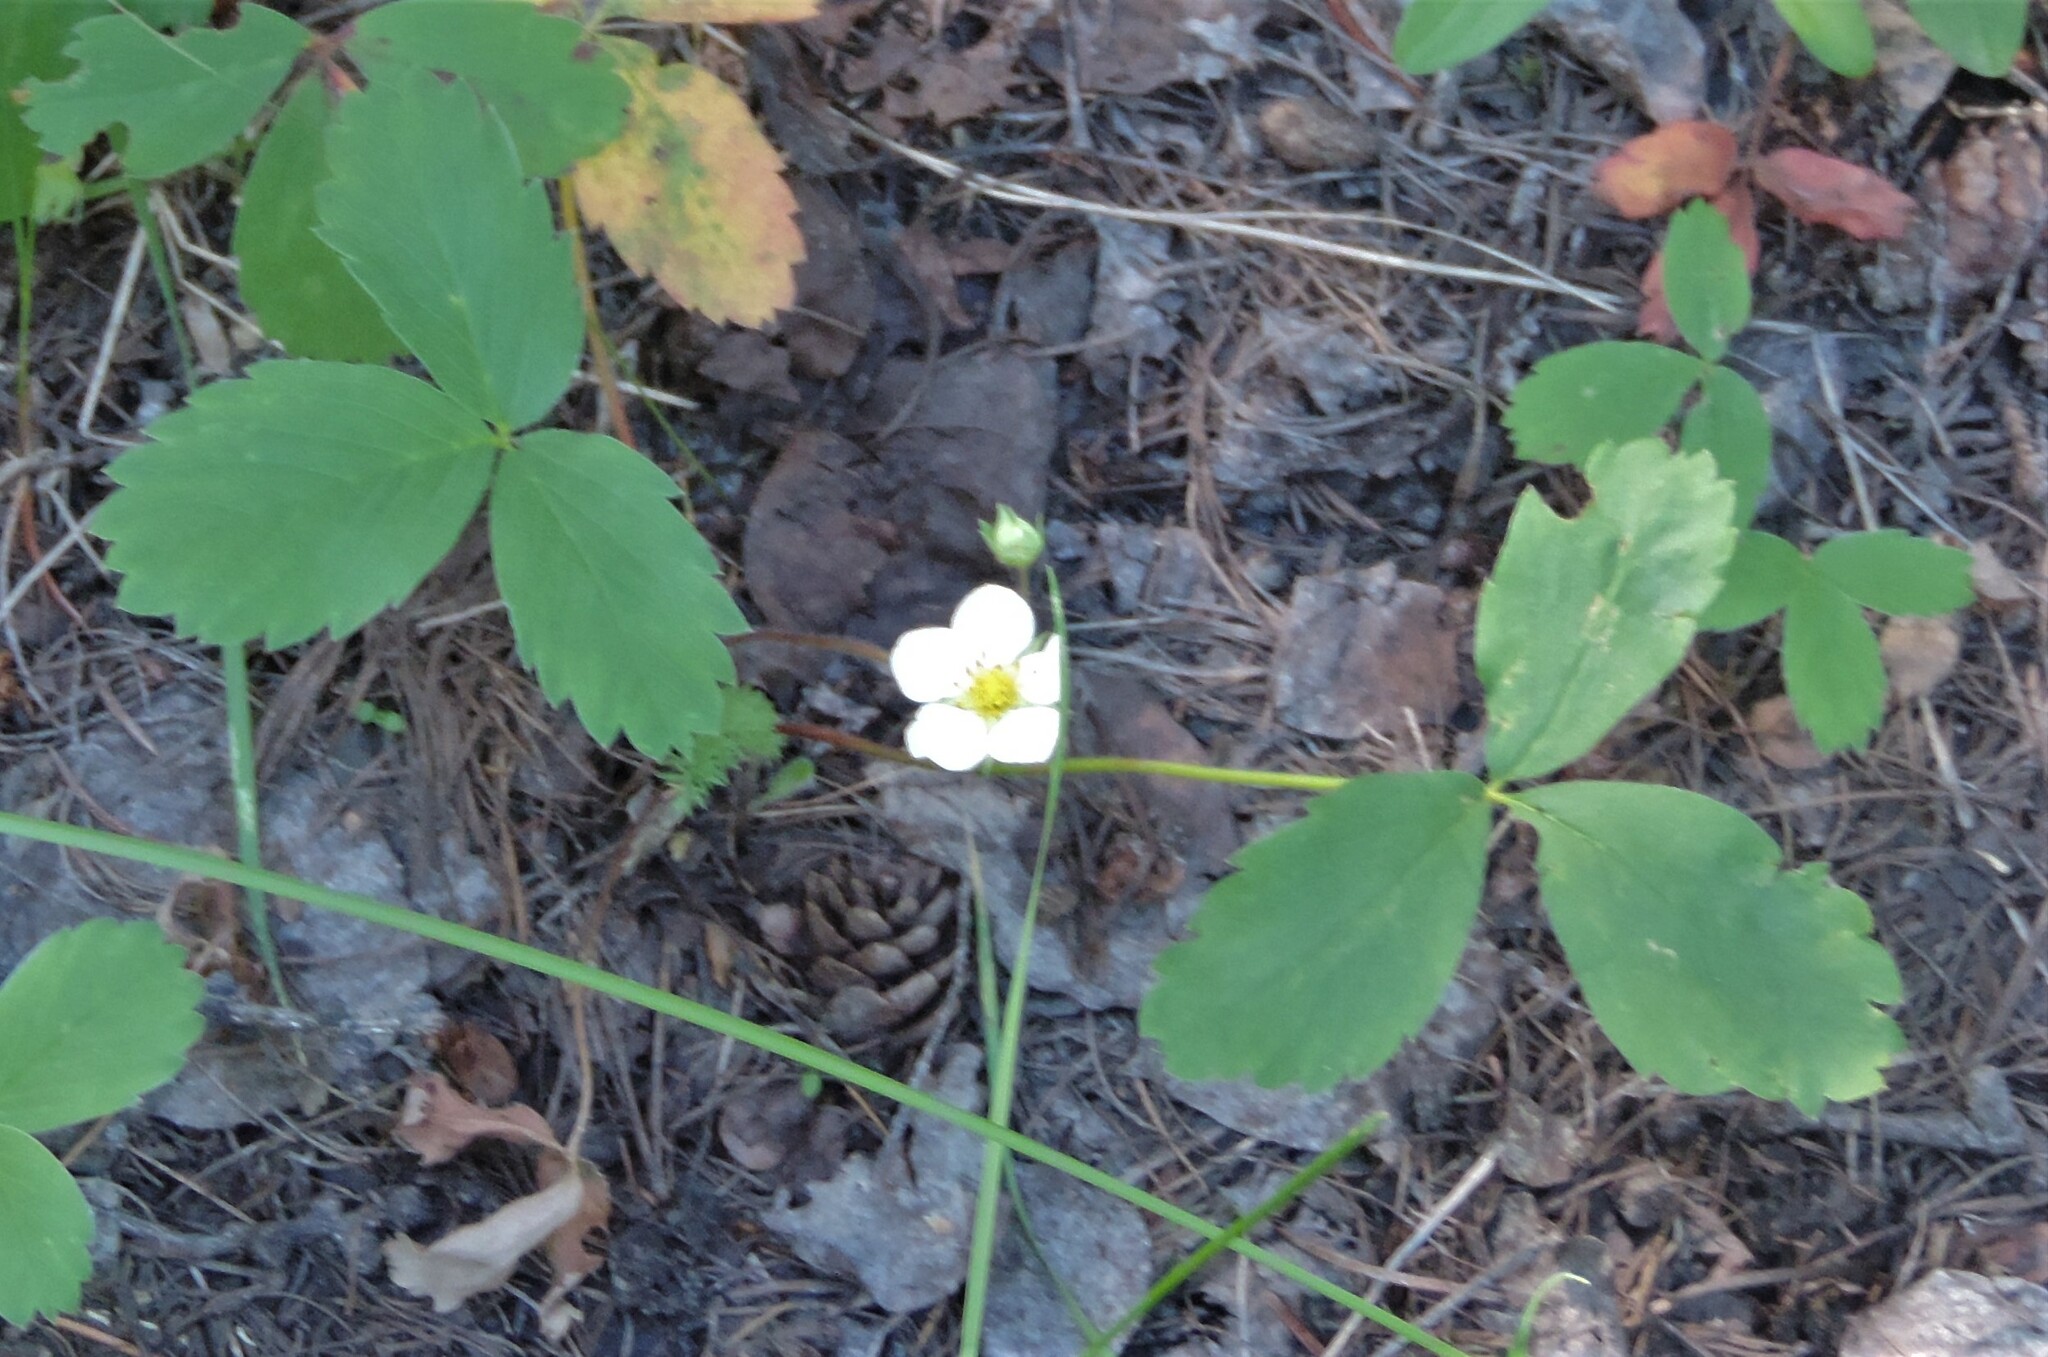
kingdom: Plantae
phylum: Tracheophyta
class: Magnoliopsida
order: Rosales
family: Rosaceae
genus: Fragaria
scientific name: Fragaria virginiana
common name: Thickleaved wild strawberry
